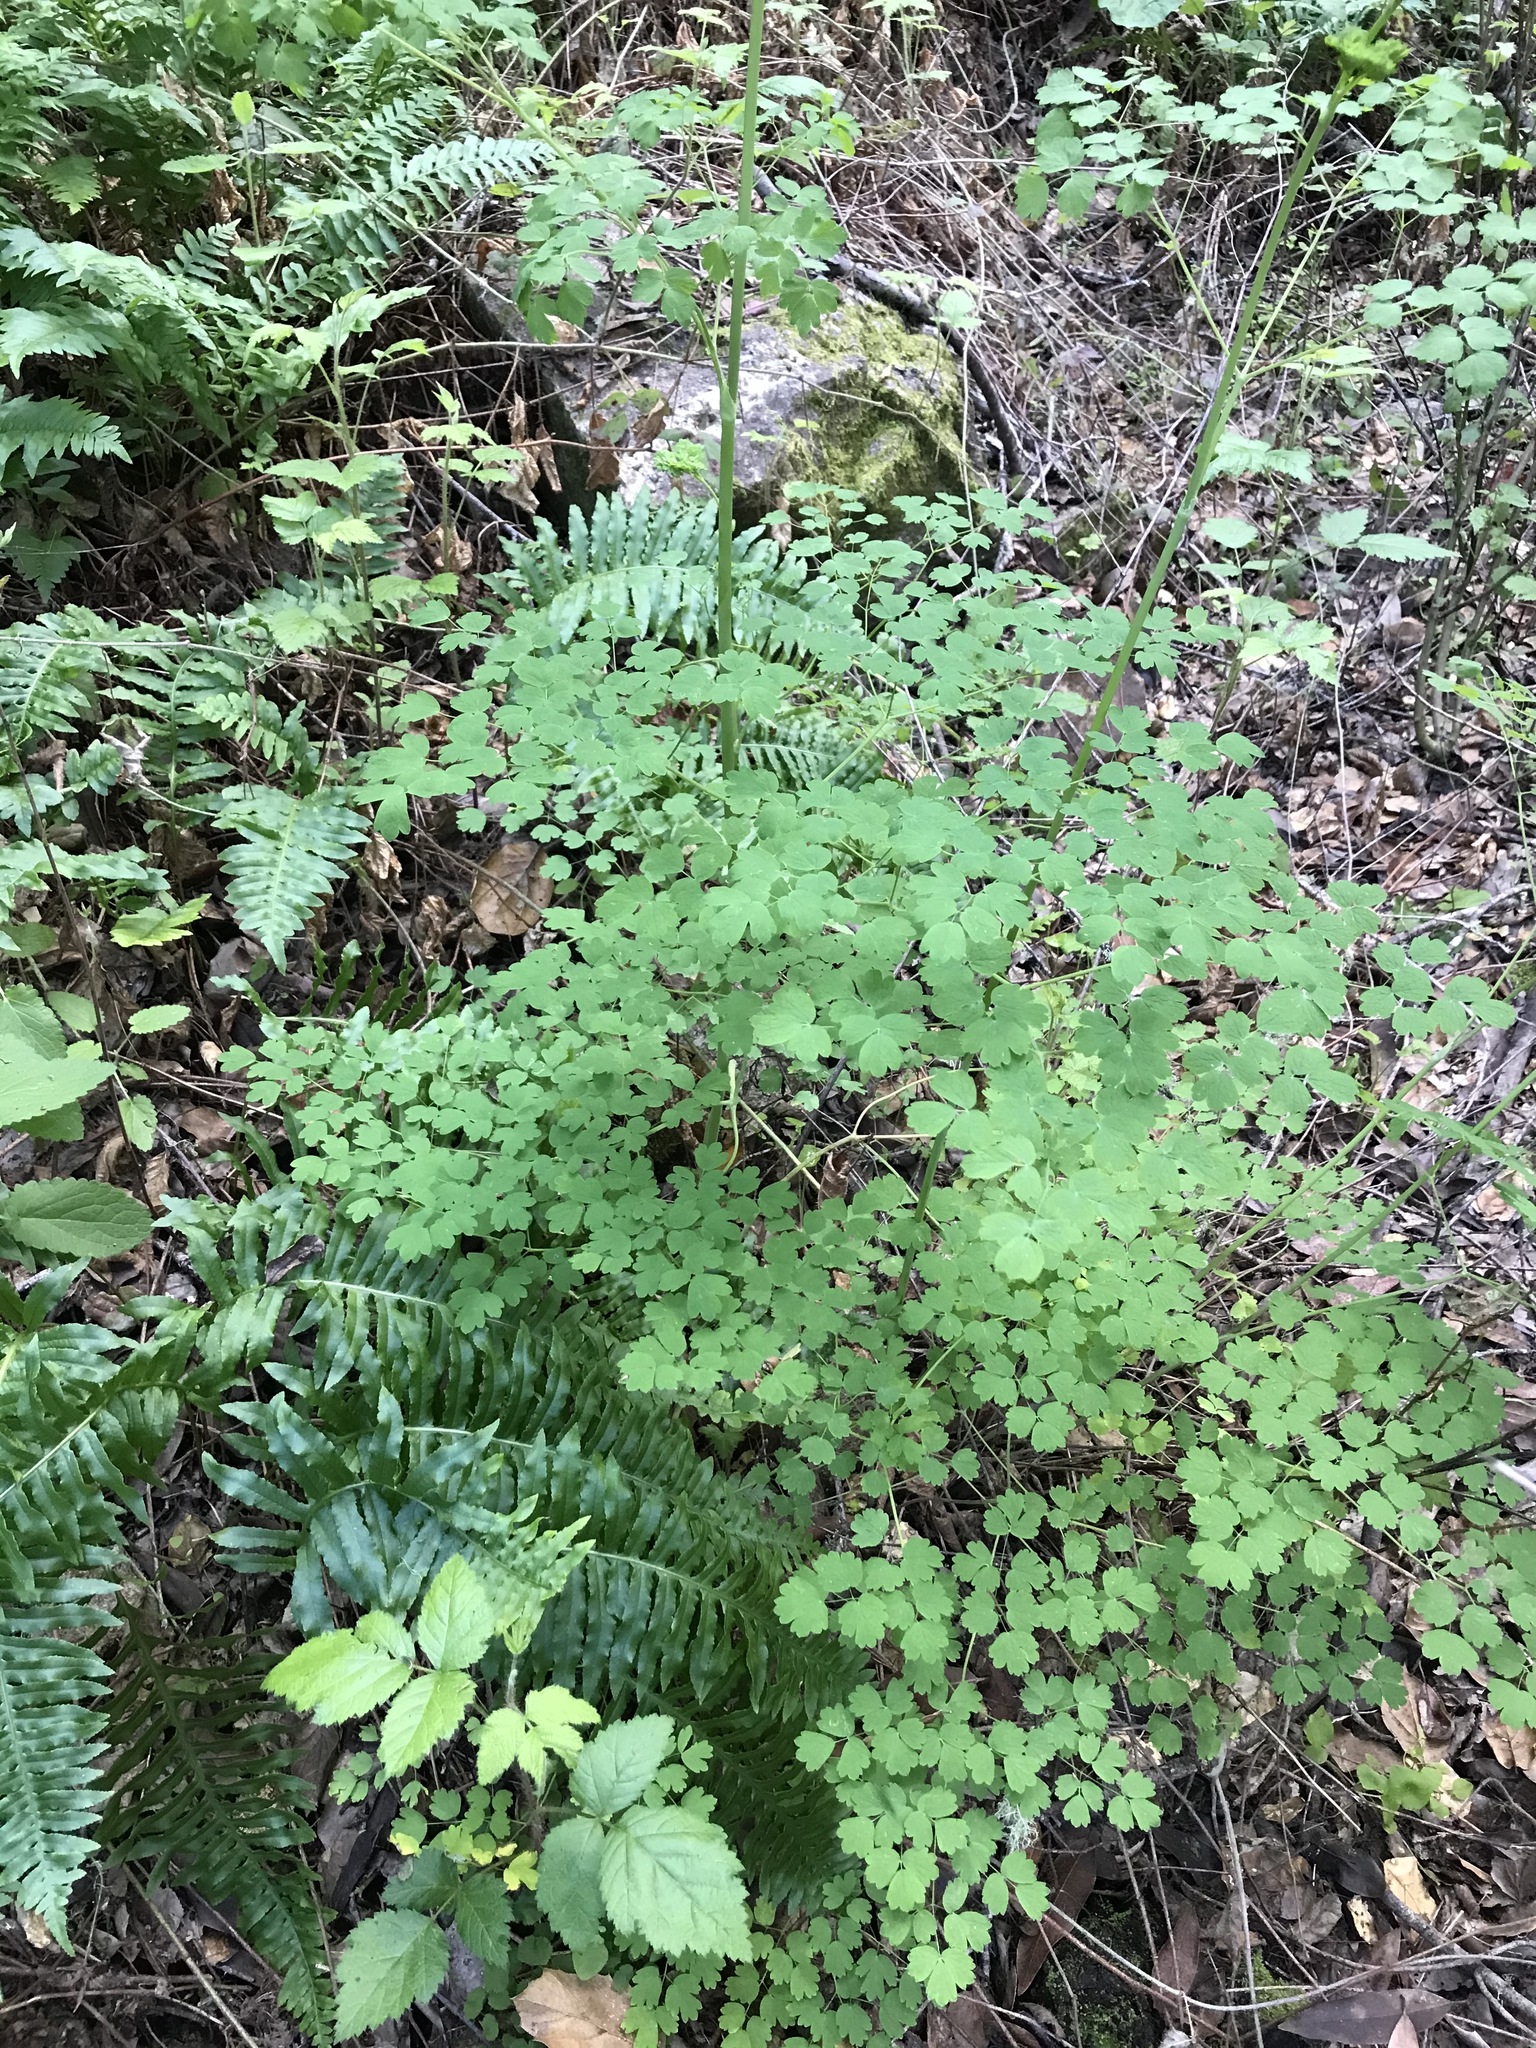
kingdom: Plantae
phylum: Tracheophyta
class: Magnoliopsida
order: Ranunculales
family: Ranunculaceae
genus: Thalictrum
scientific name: Thalictrum fendleri
